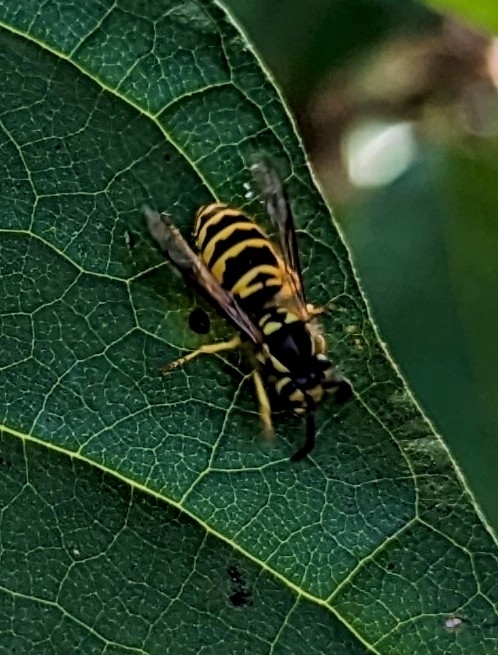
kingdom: Animalia
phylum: Arthropoda
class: Insecta
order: Hymenoptera
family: Vespidae
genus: Vespula
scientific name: Vespula maculifrons
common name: Eastern yellowjacket
